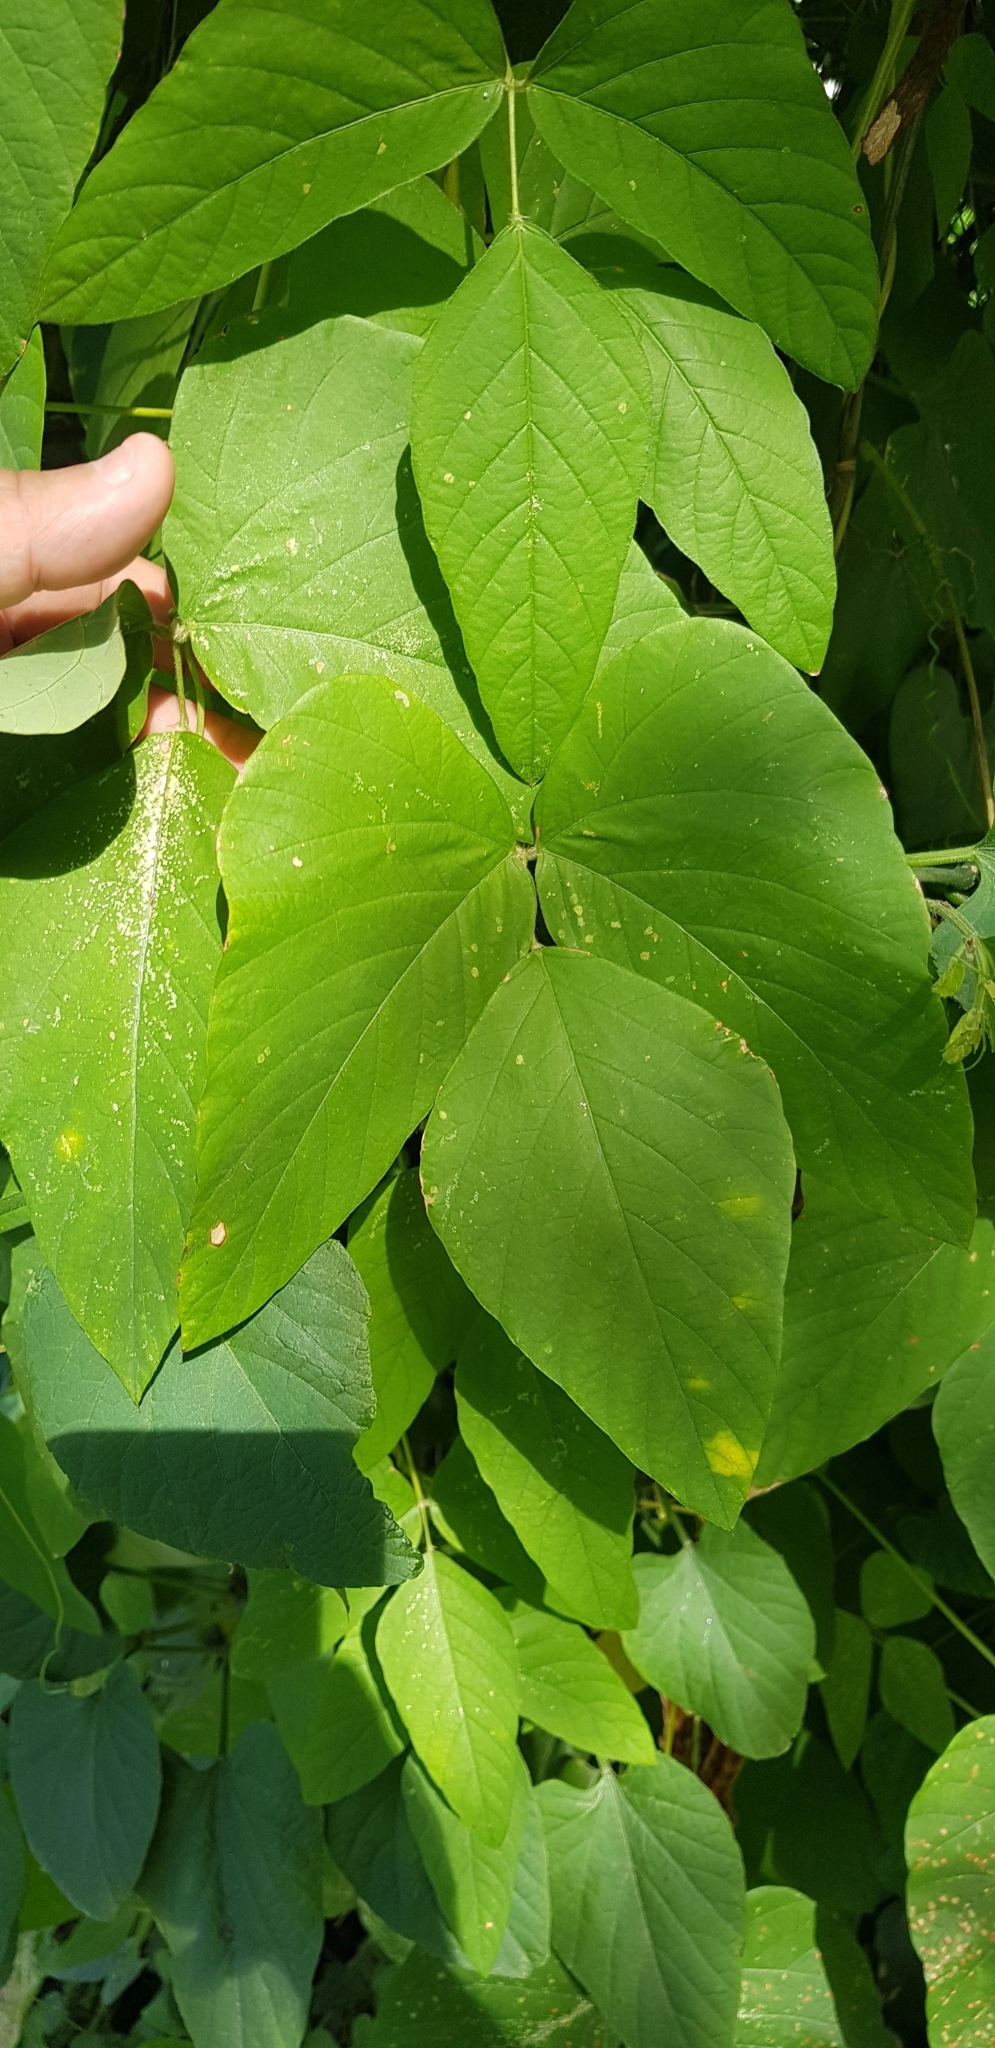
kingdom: Plantae
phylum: Tracheophyta
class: Magnoliopsida
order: Fabales
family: Fabaceae
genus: Mucuna
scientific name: Mucuna pruriens
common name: Cow-itch
